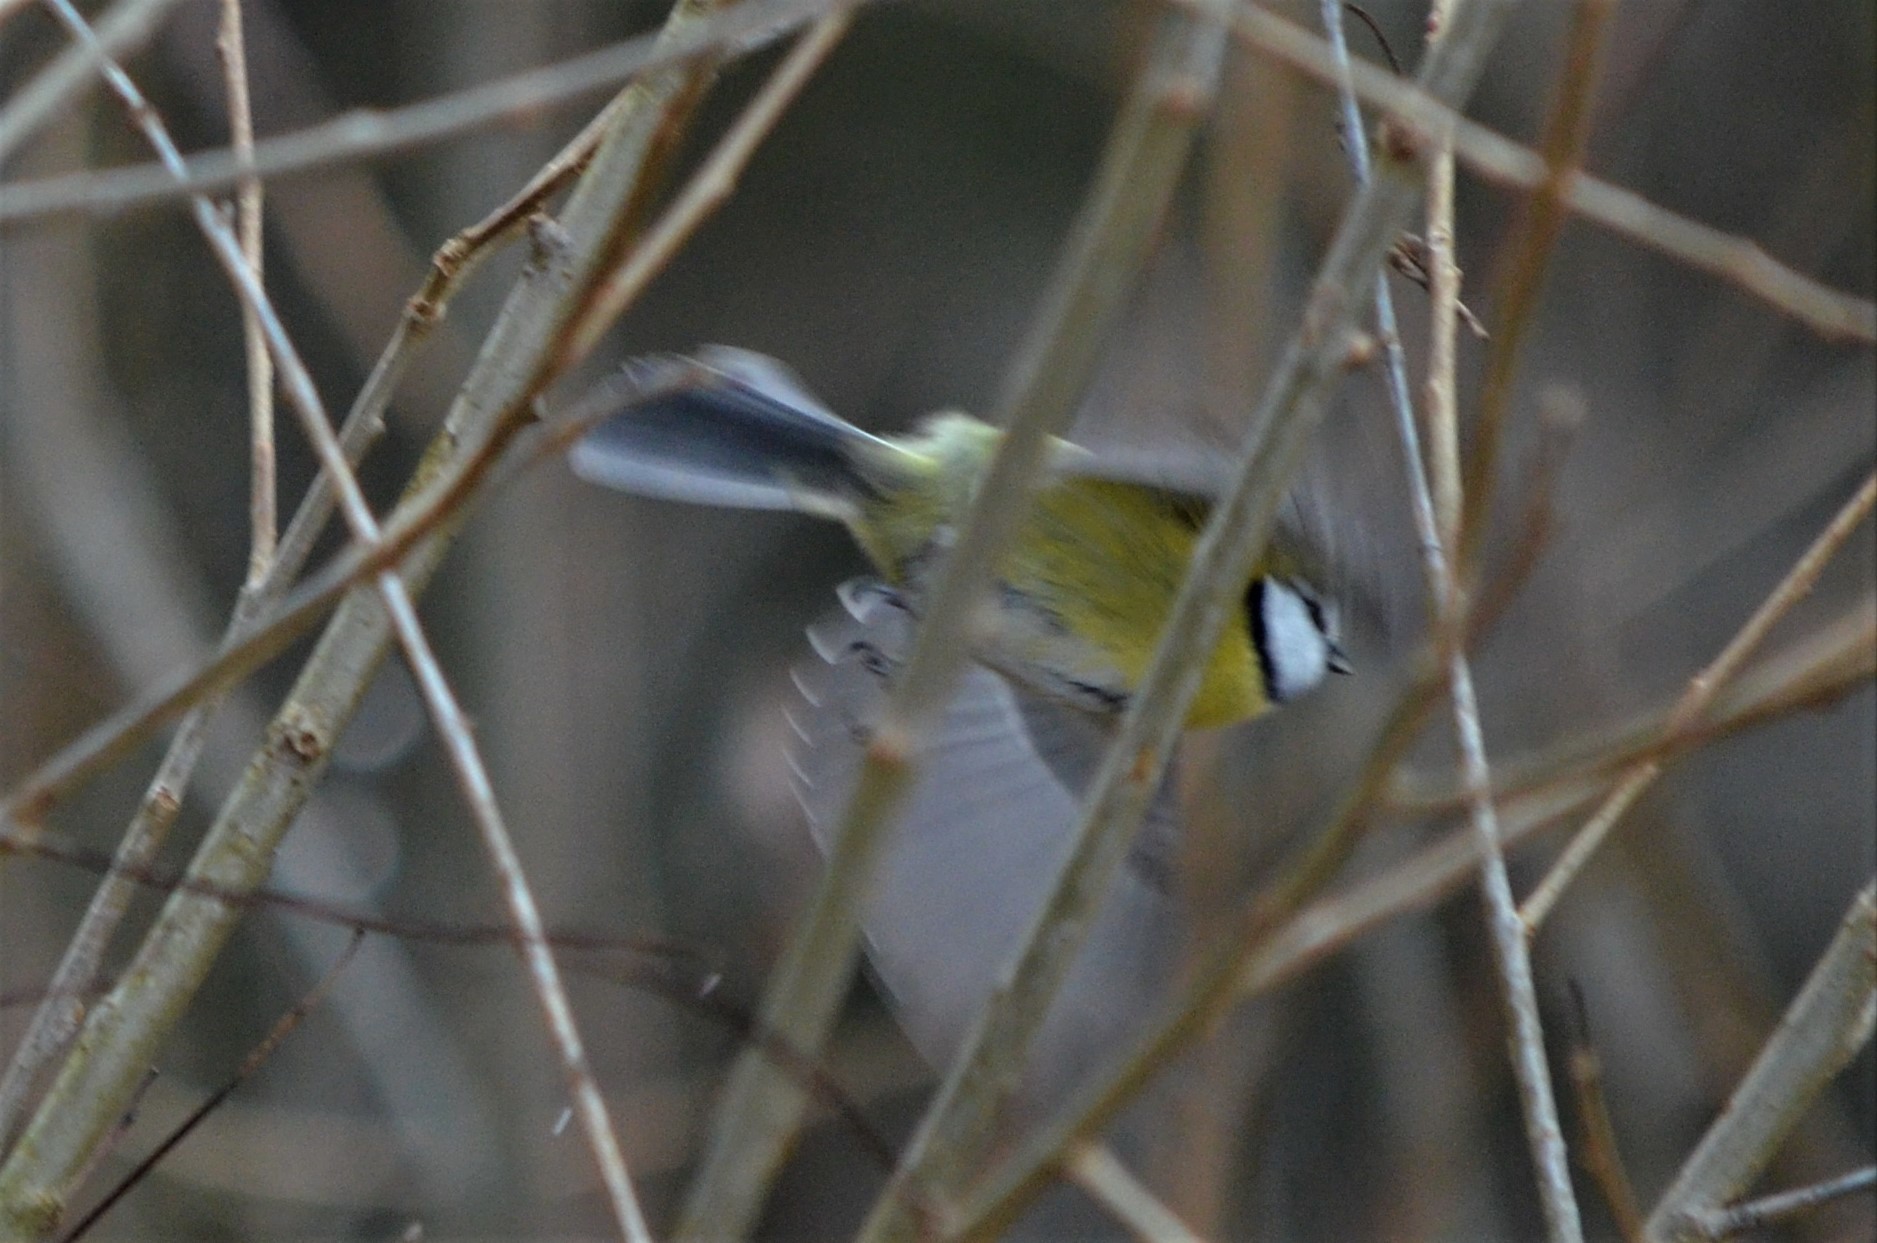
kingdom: Animalia
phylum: Chordata
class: Aves
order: Passeriformes
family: Paridae
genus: Cyanistes
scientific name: Cyanistes caeruleus
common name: Eurasian blue tit
